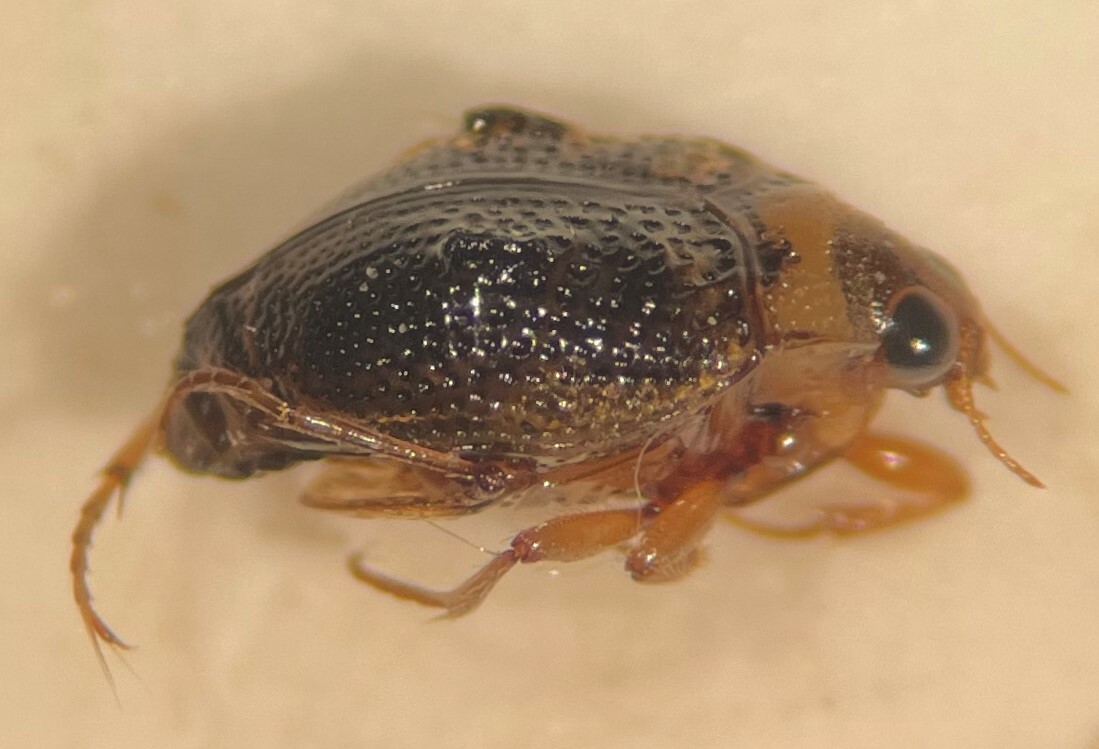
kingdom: Animalia
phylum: Arthropoda
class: Insecta
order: Coleoptera
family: Haliplidae
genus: Peltodytes
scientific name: Peltodytes roughleyi
